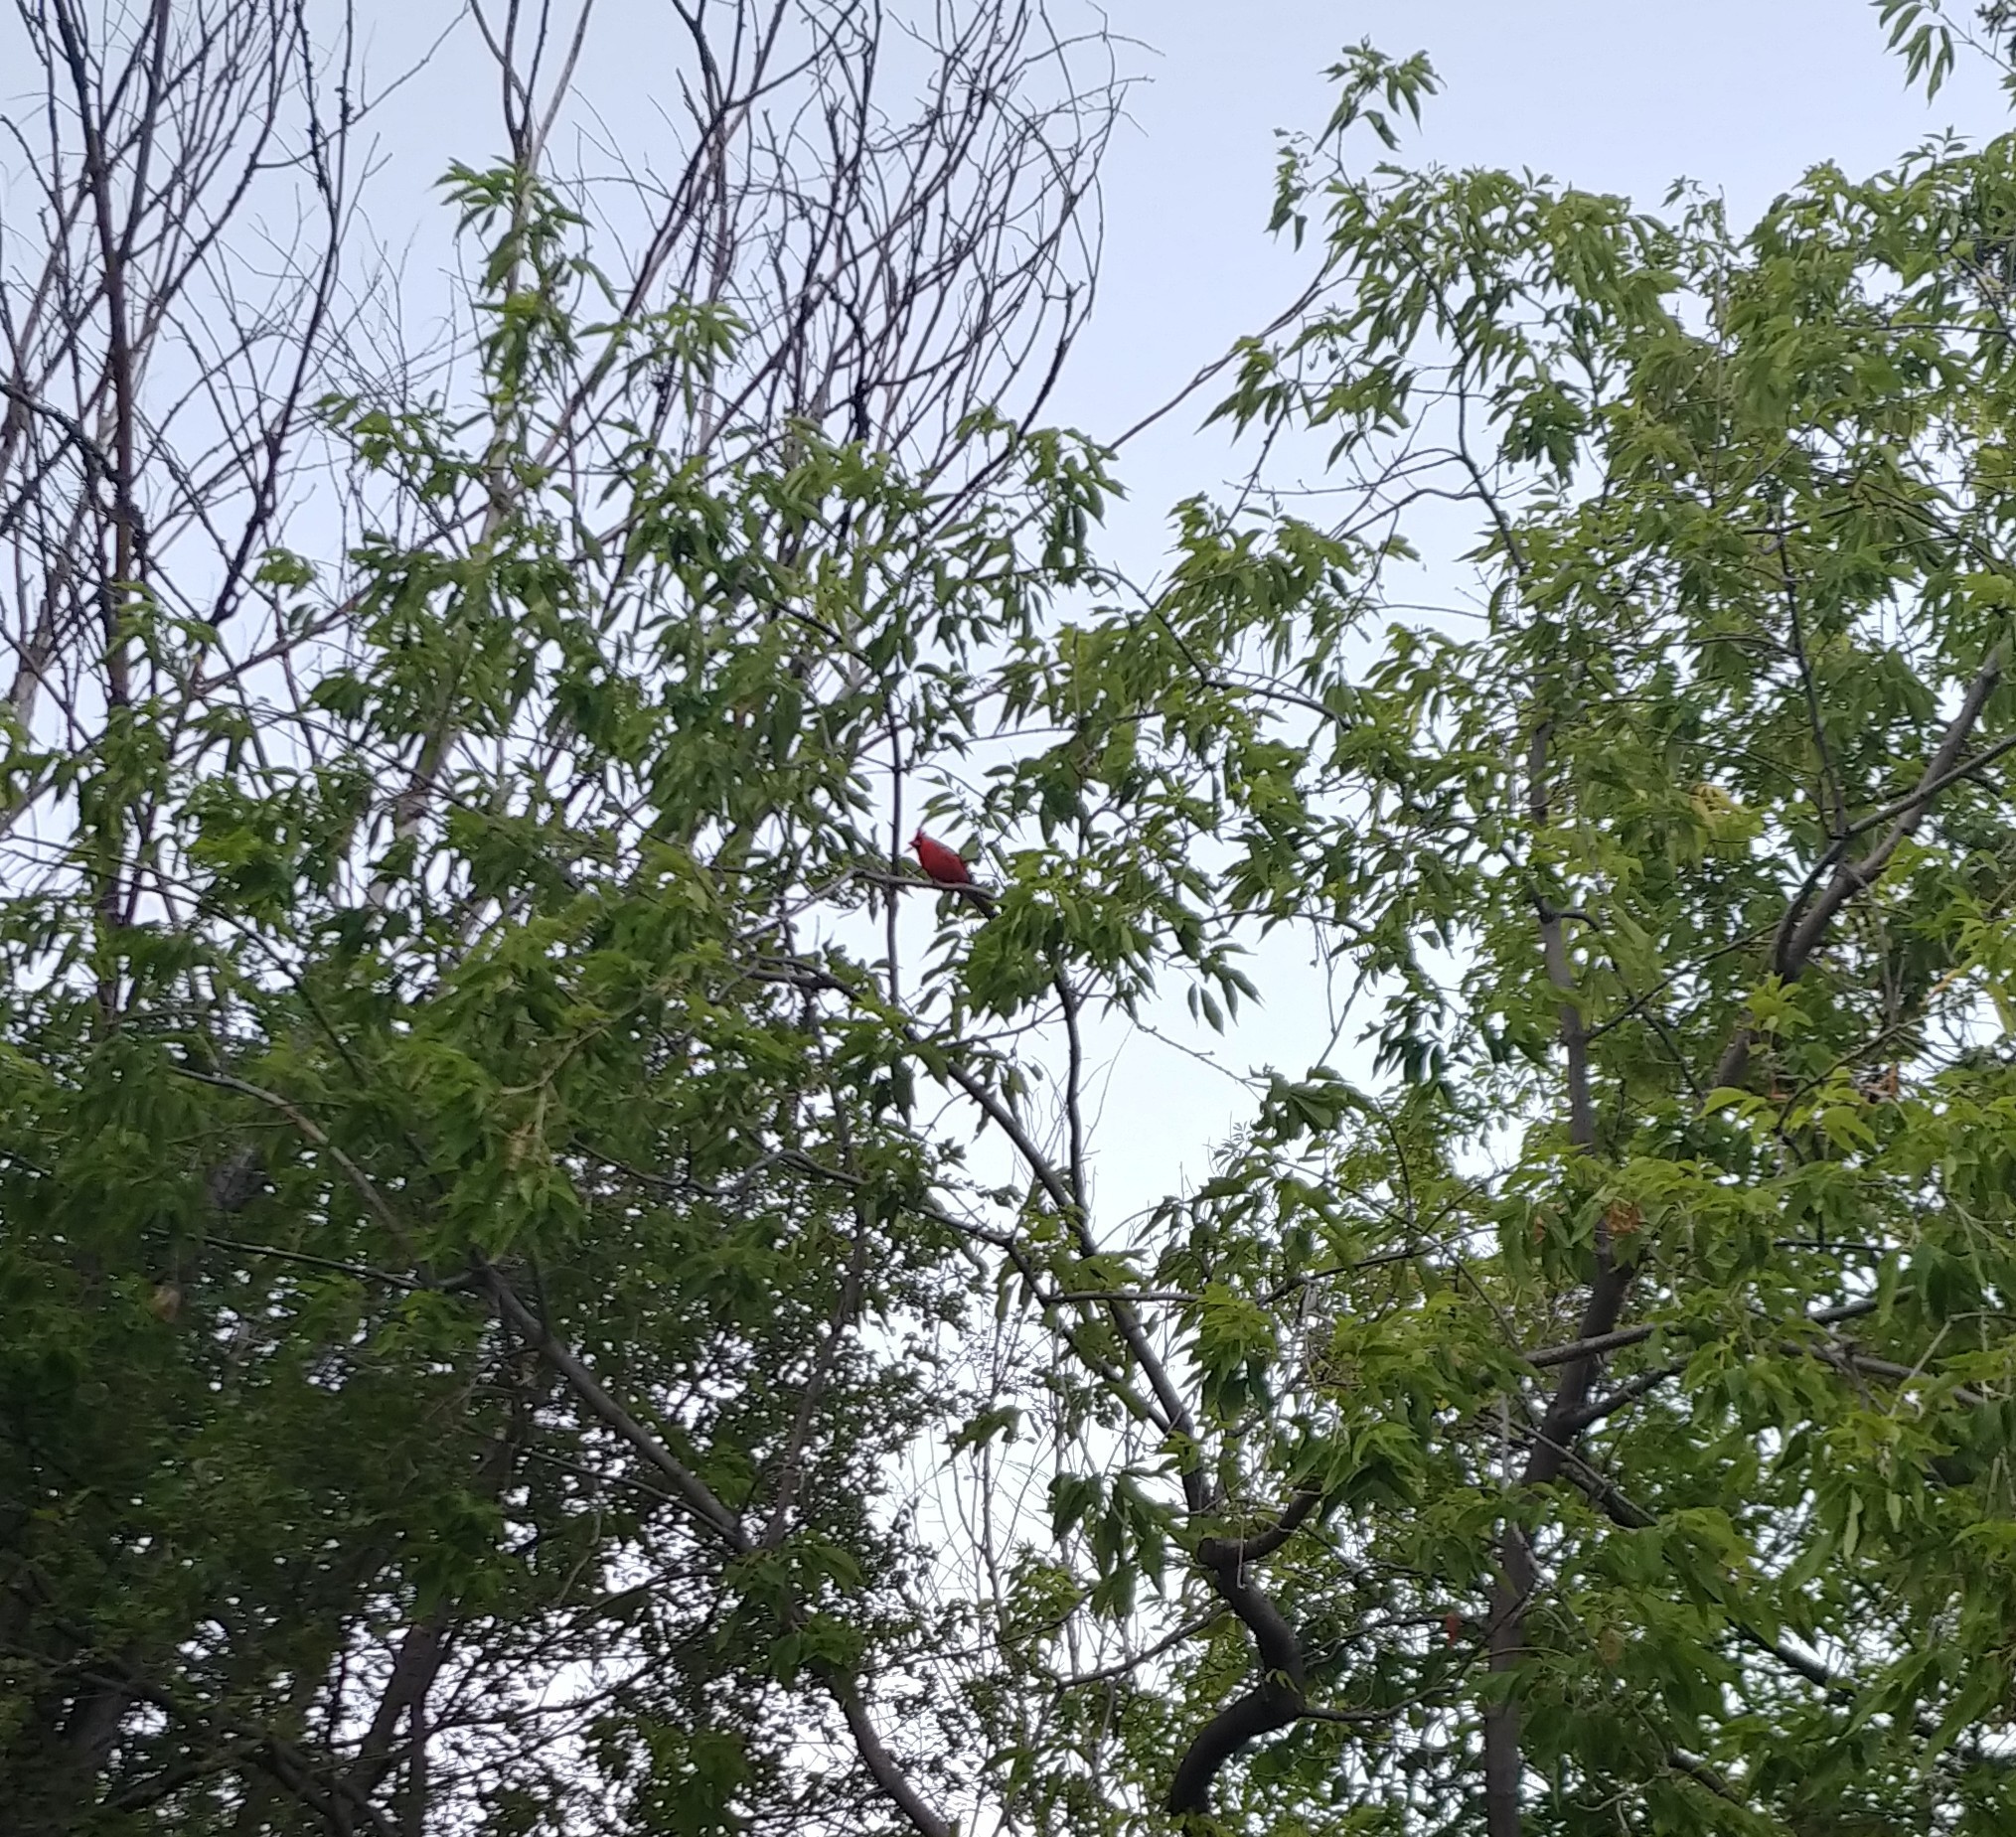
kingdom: Animalia
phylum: Chordata
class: Aves
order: Passeriformes
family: Cardinalidae
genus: Cardinalis
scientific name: Cardinalis cardinalis
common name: Northern cardinal
